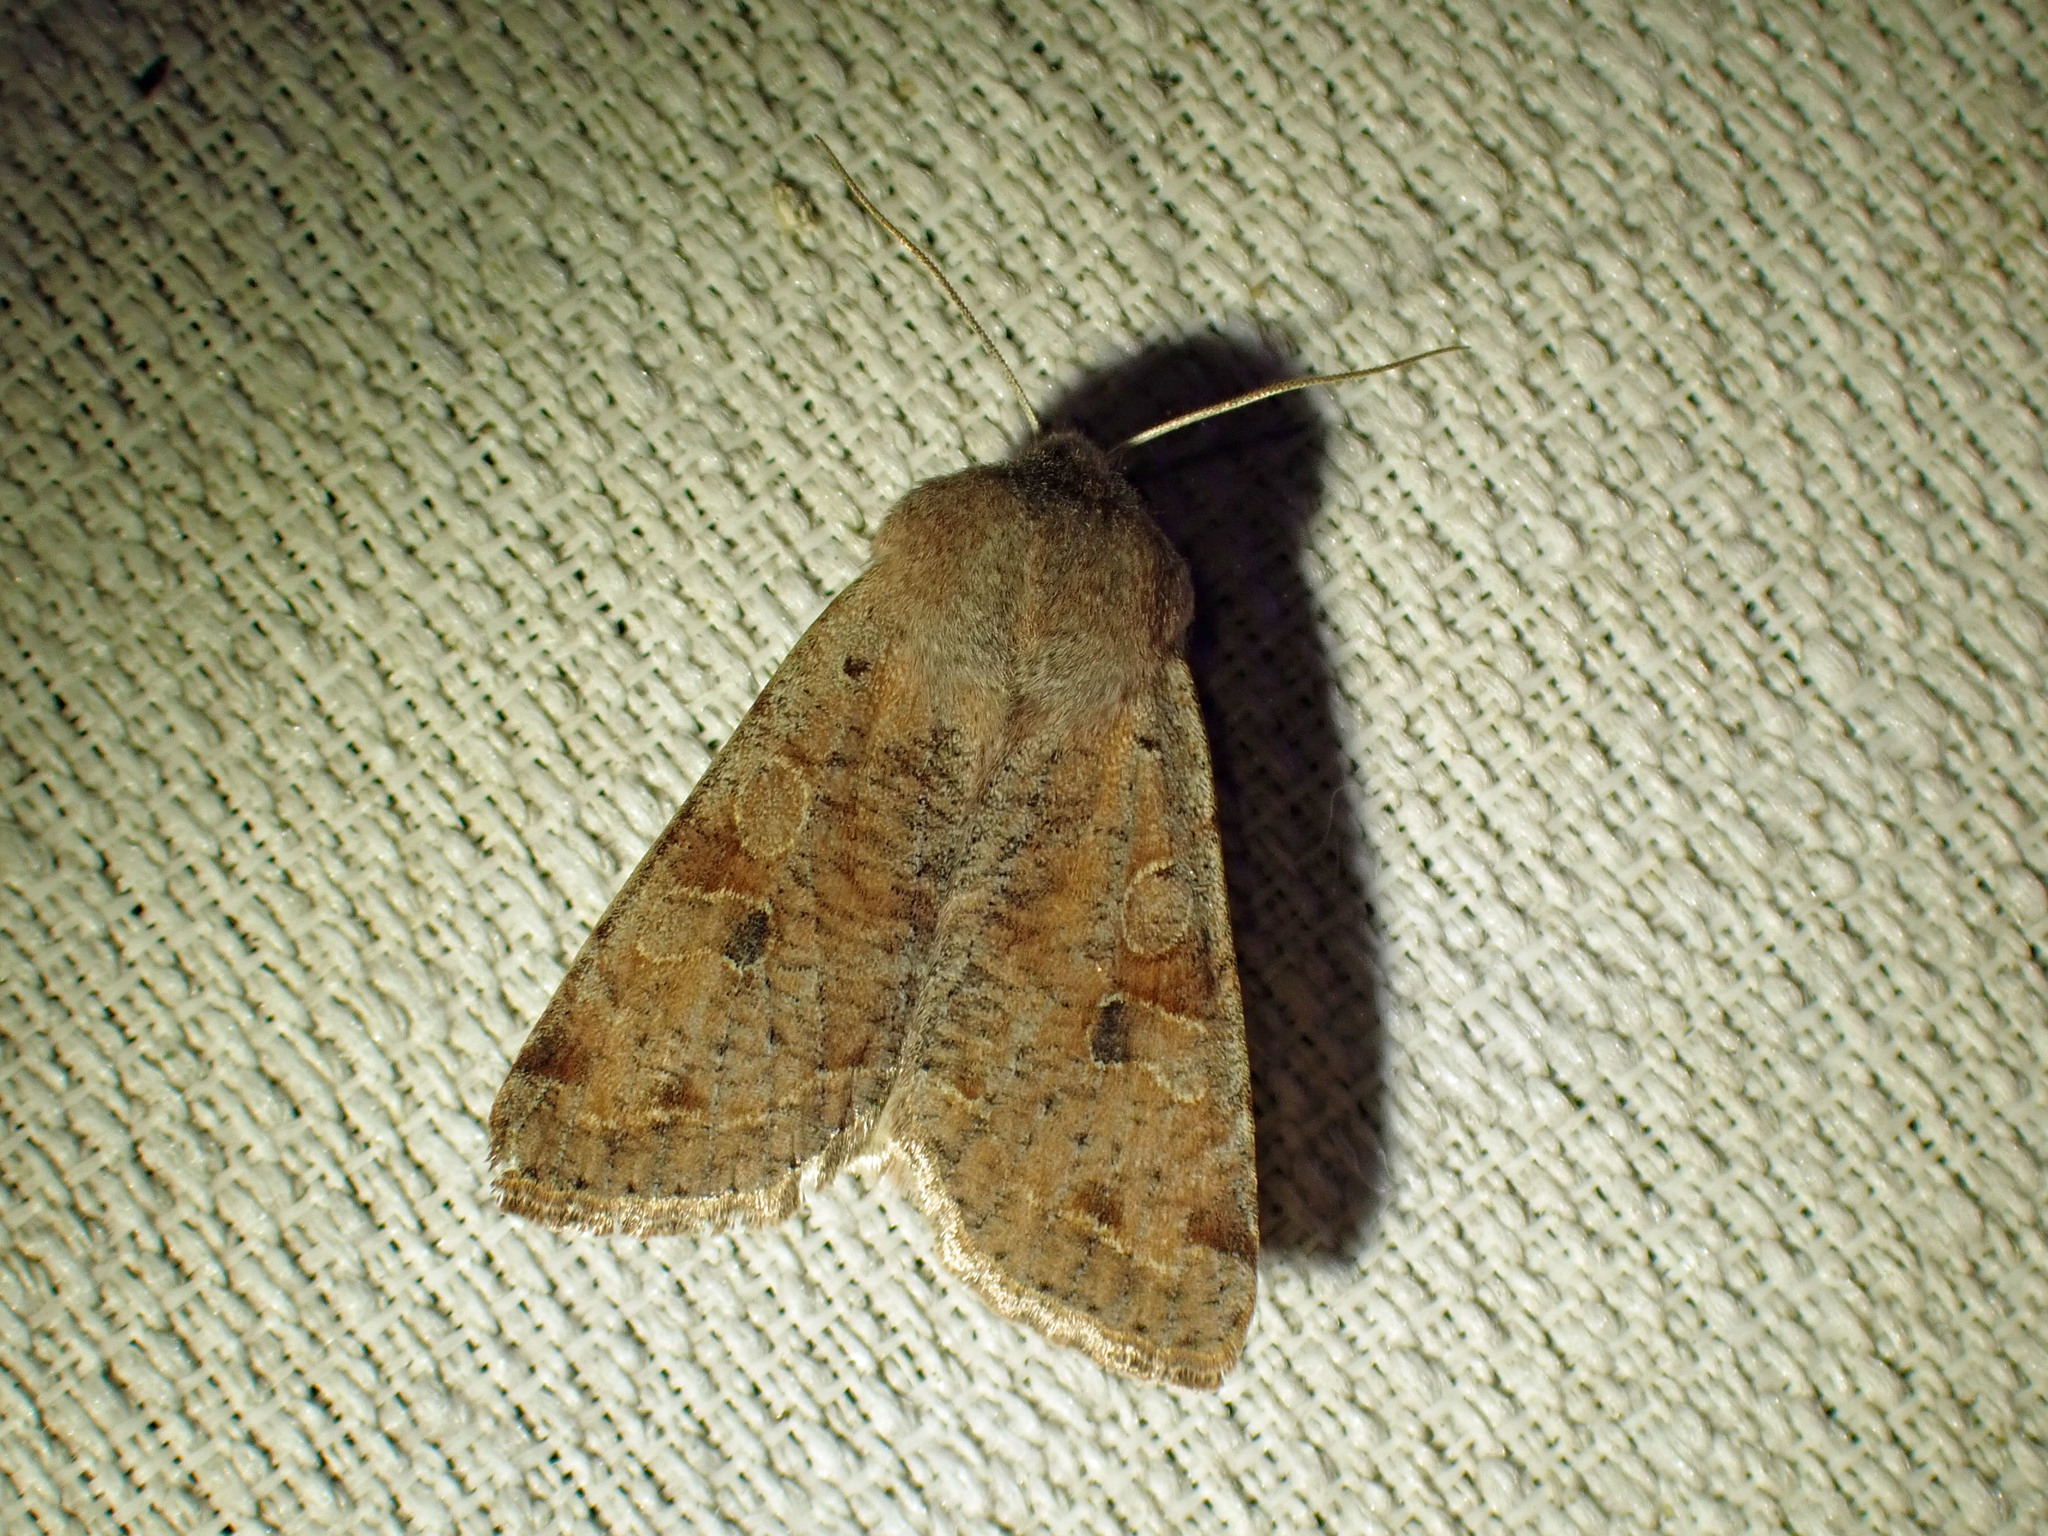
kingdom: Animalia
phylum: Arthropoda
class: Insecta
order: Lepidoptera
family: Noctuidae
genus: Orthosia
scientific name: Orthosia hibisci
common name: Green fruitworm
